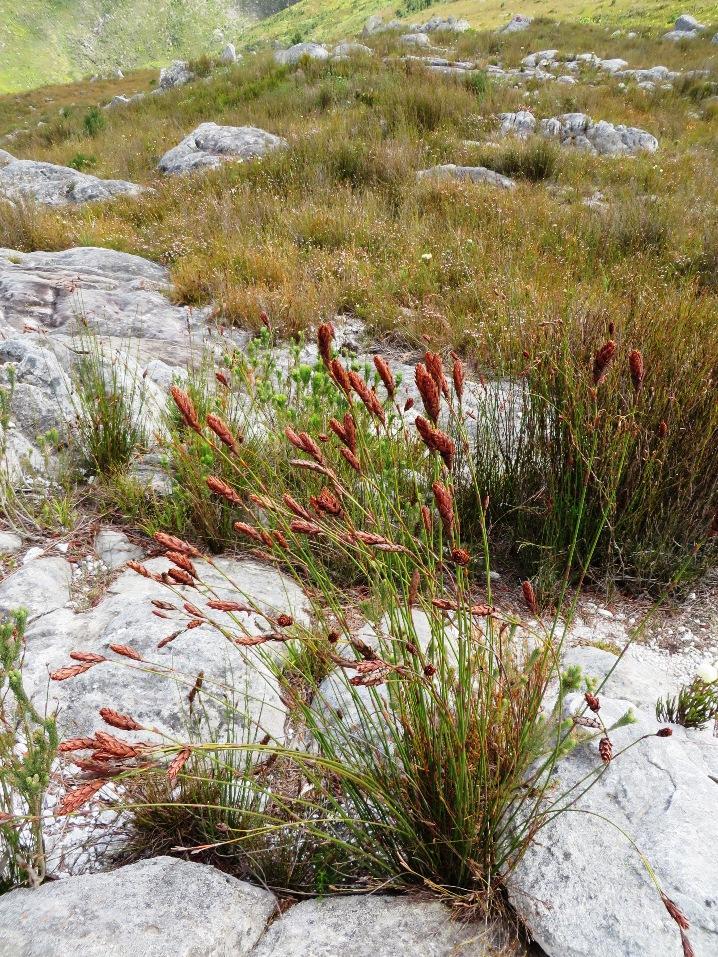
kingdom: Plantae
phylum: Tracheophyta
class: Liliopsida
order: Poales
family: Restionaceae
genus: Restio
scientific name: Restio bifarius
